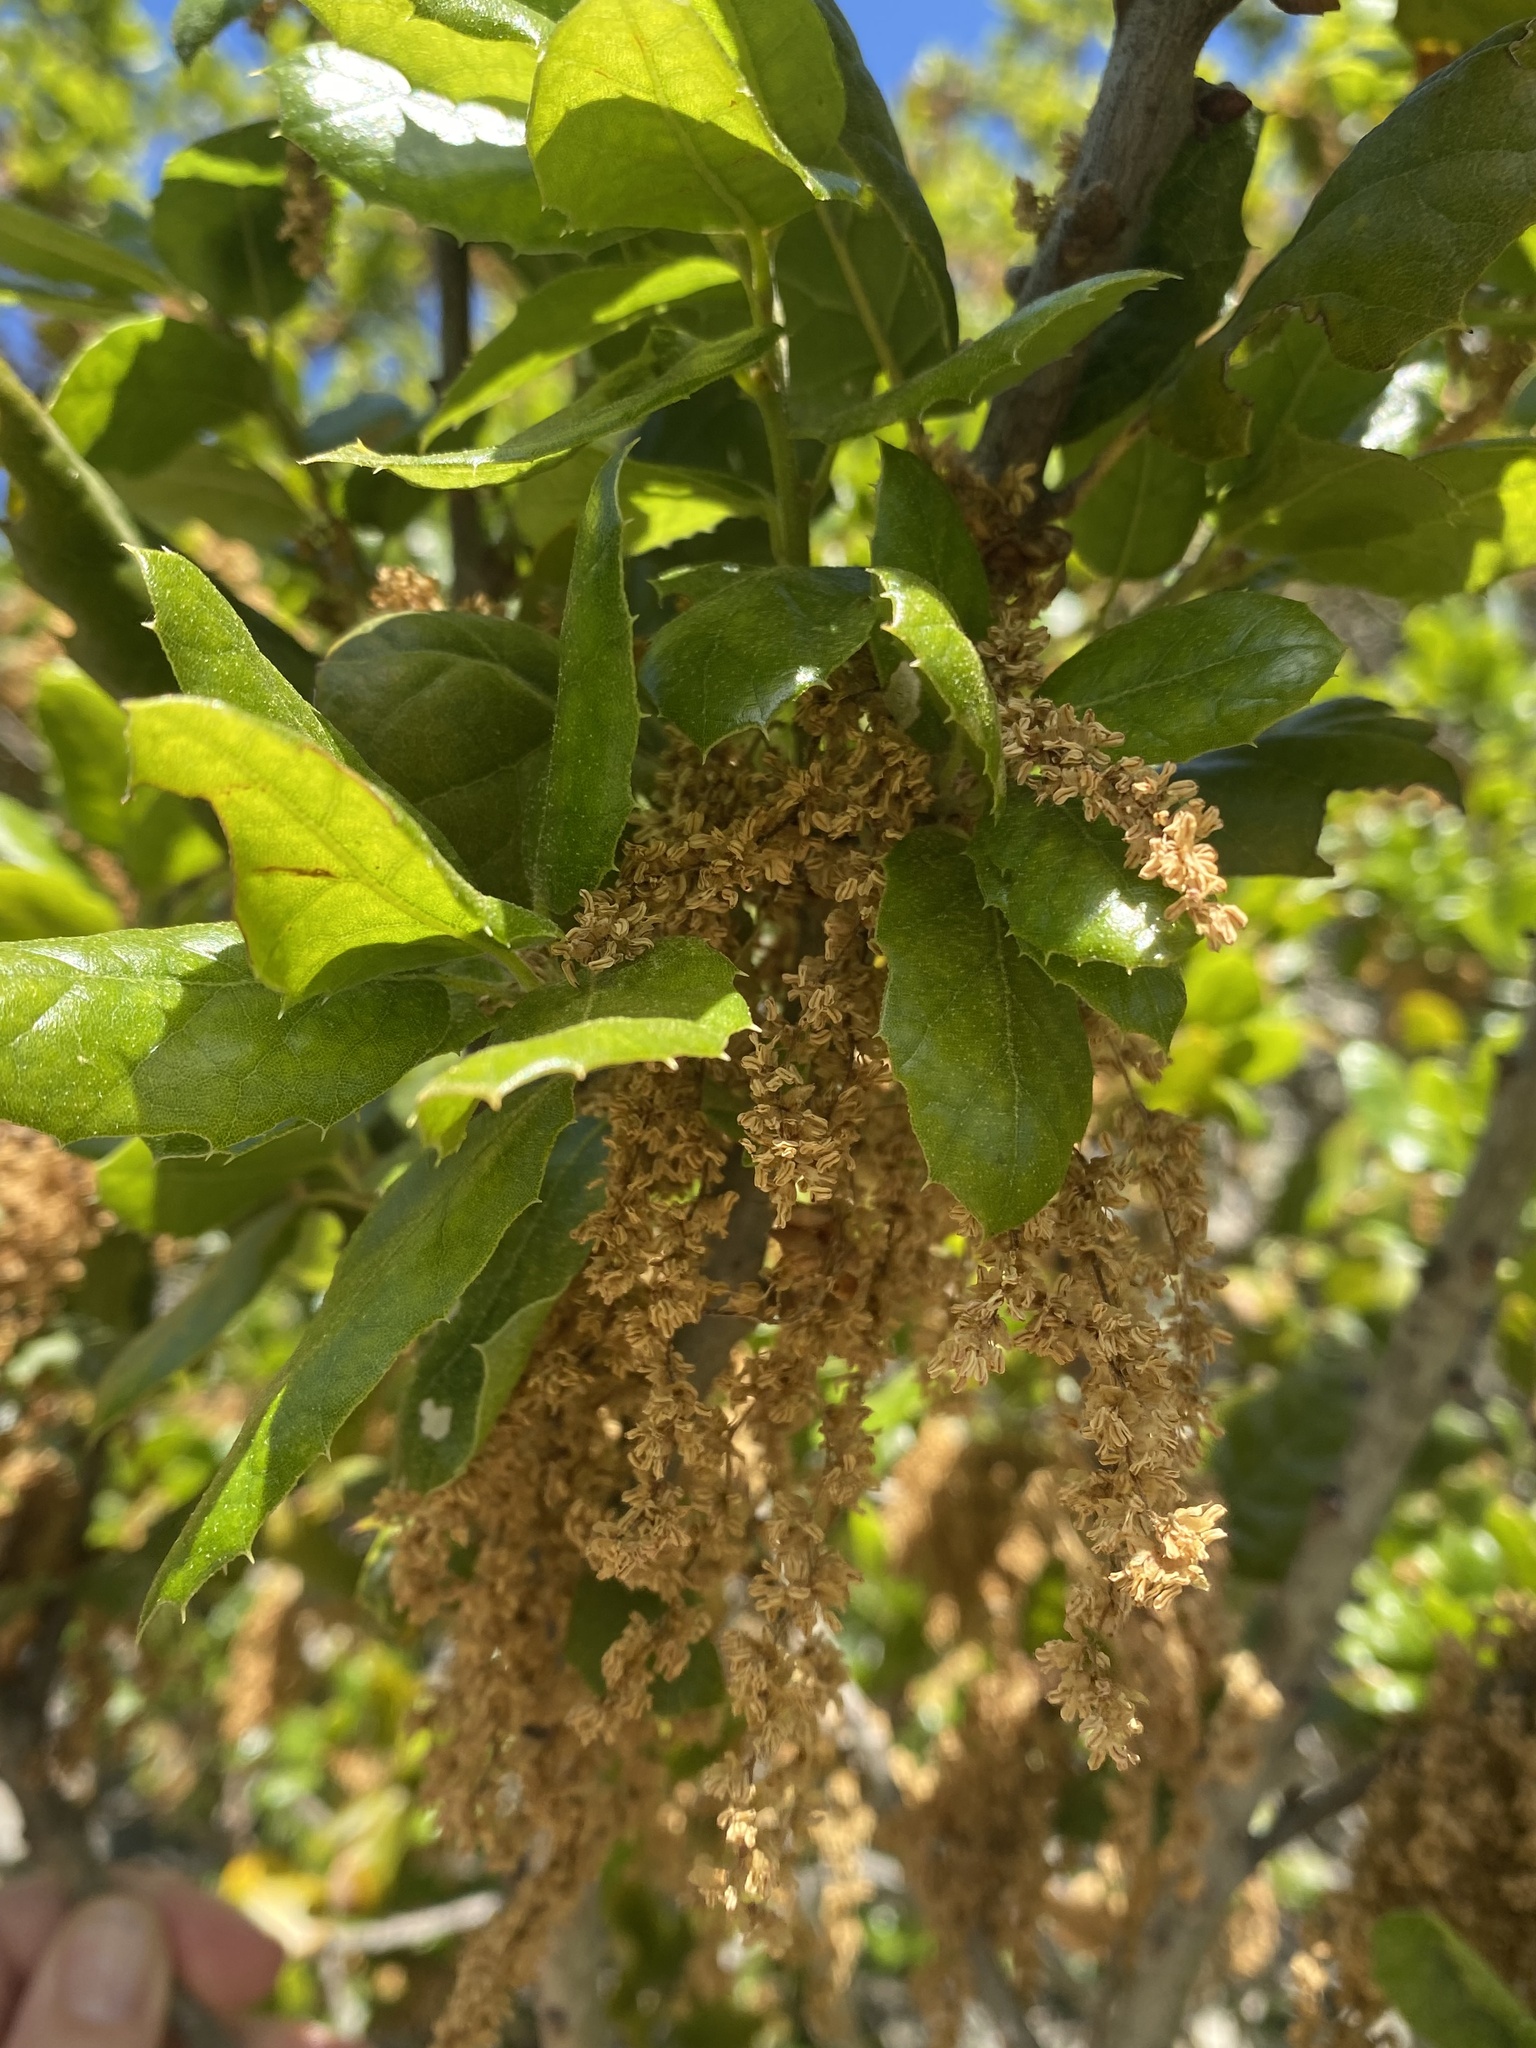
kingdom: Plantae
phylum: Tracheophyta
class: Magnoliopsida
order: Fagales
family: Fagaceae
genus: Quercus
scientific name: Quercus agrifolia
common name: California live oak
